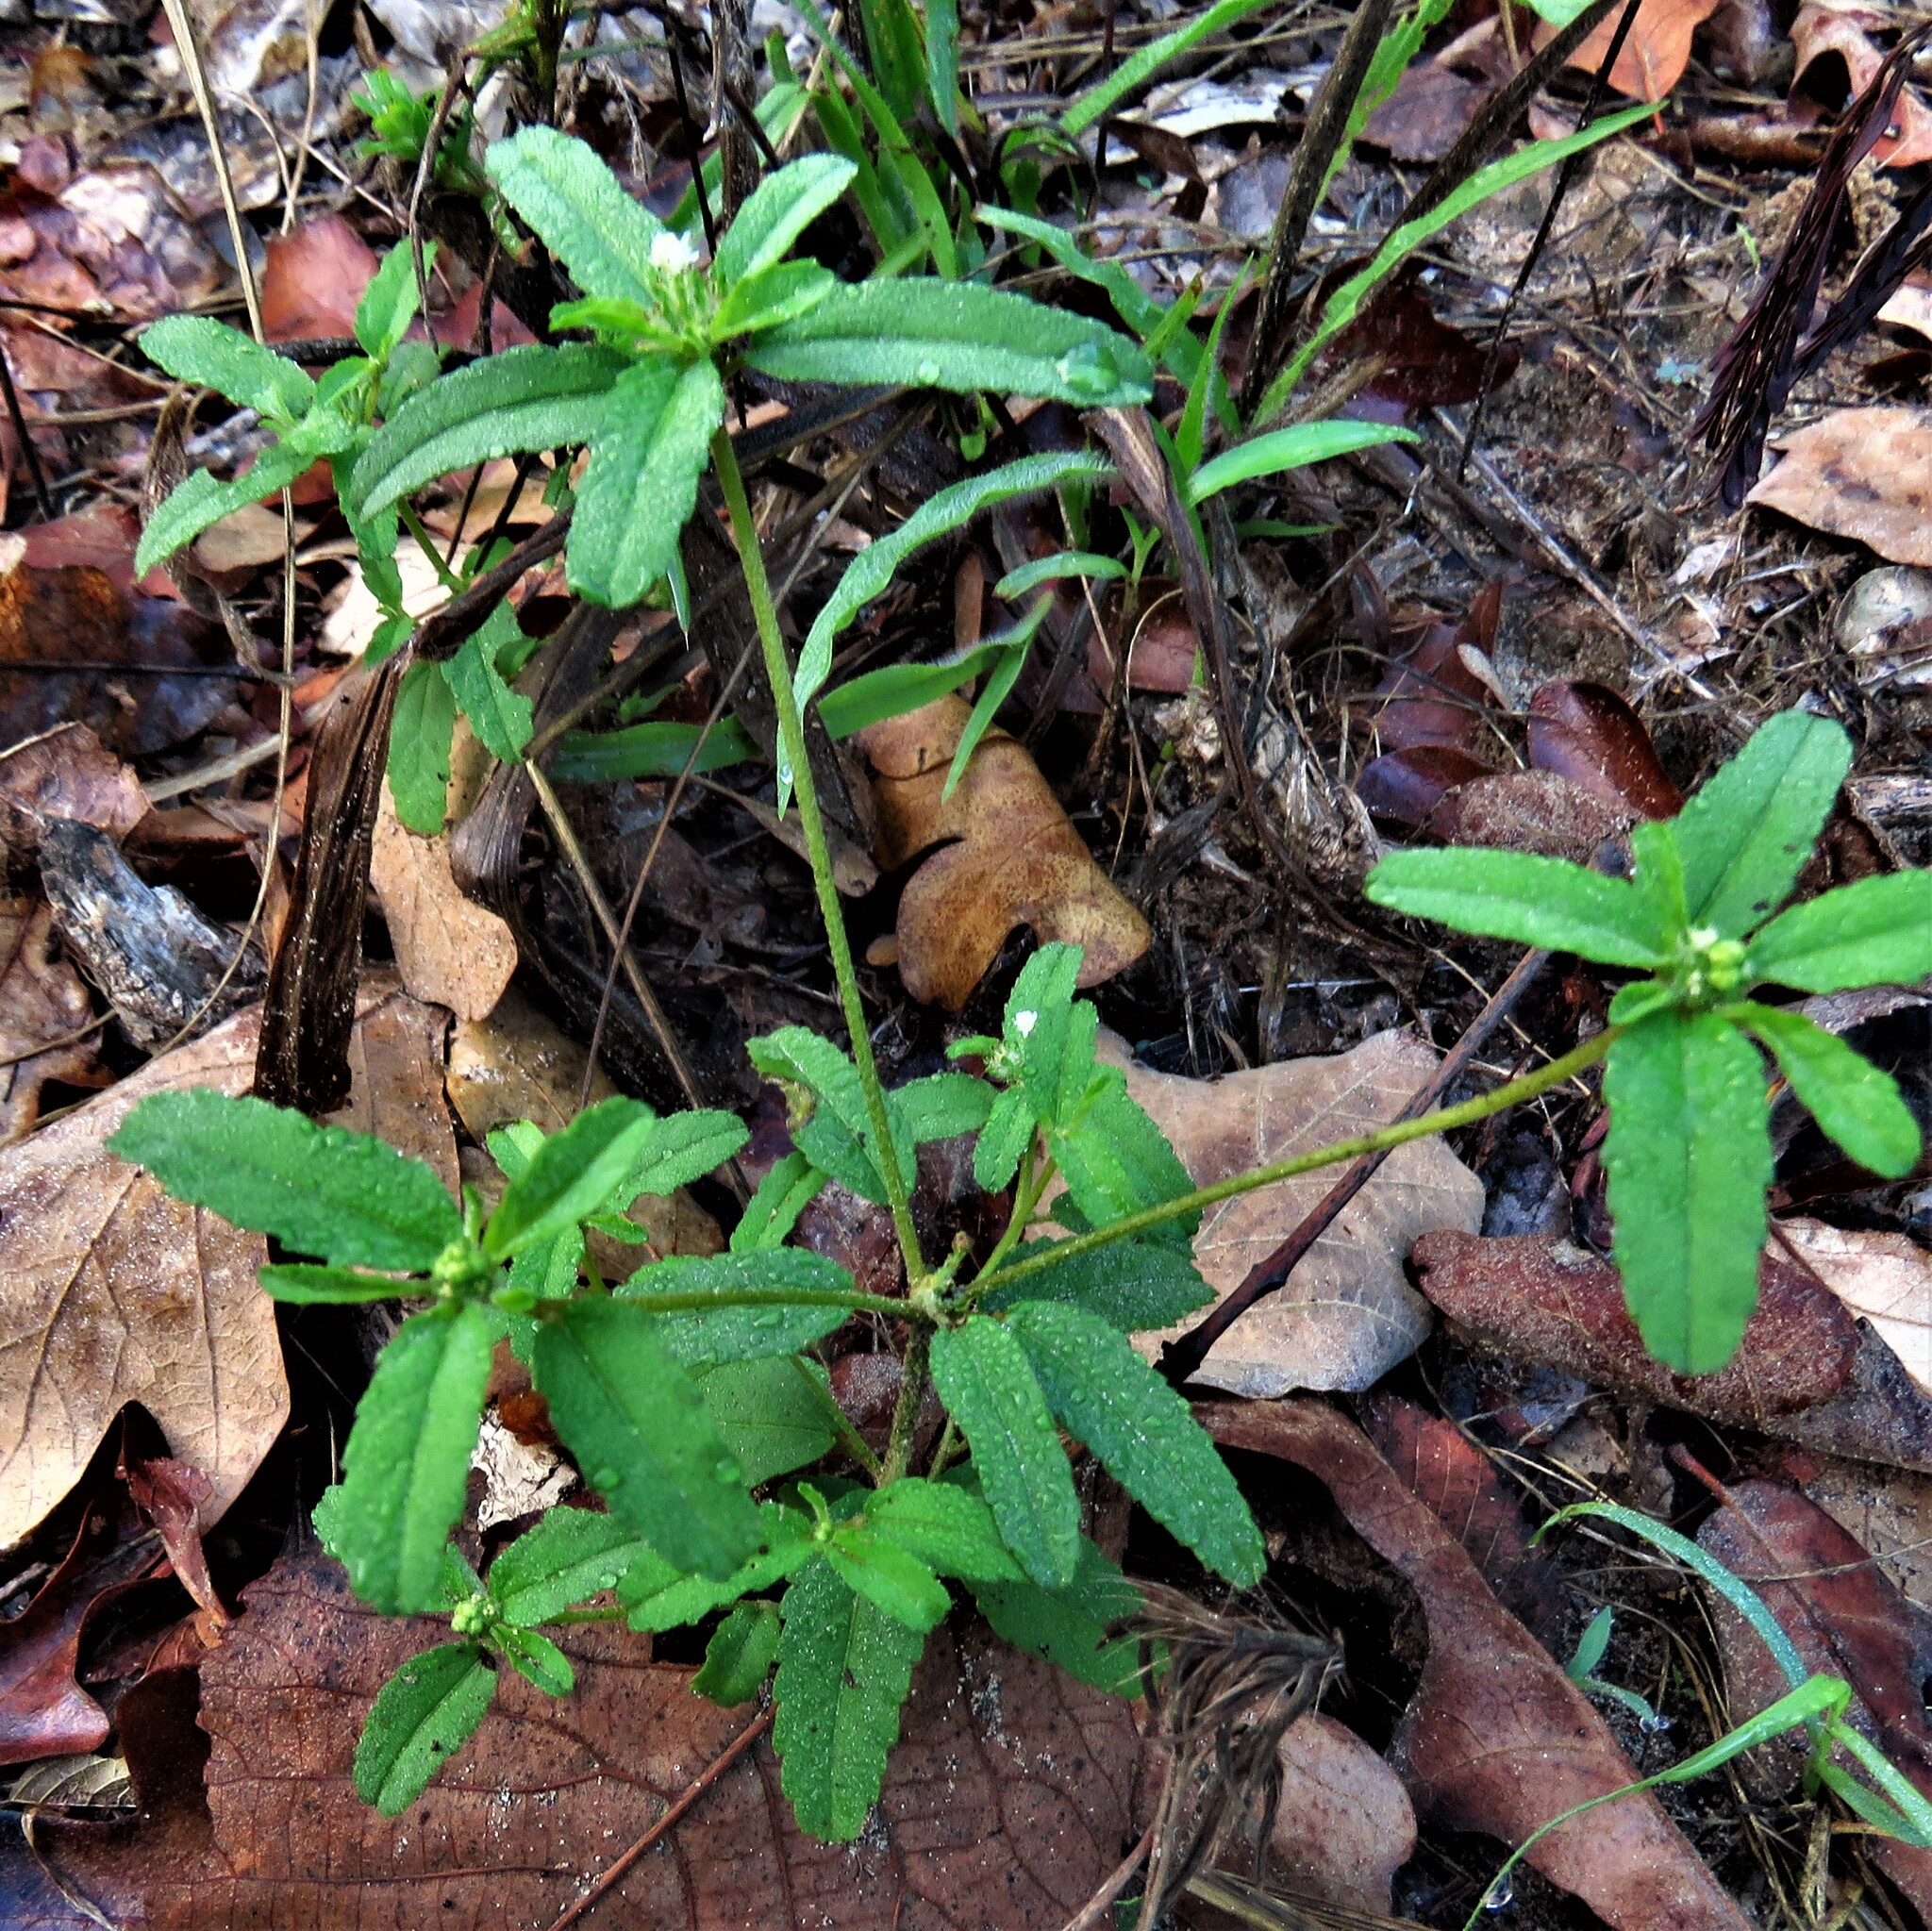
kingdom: Plantae
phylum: Tracheophyta
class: Magnoliopsida
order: Malpighiales
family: Euphorbiaceae
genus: Croton
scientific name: Croton glandulosus
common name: Tropic croton
